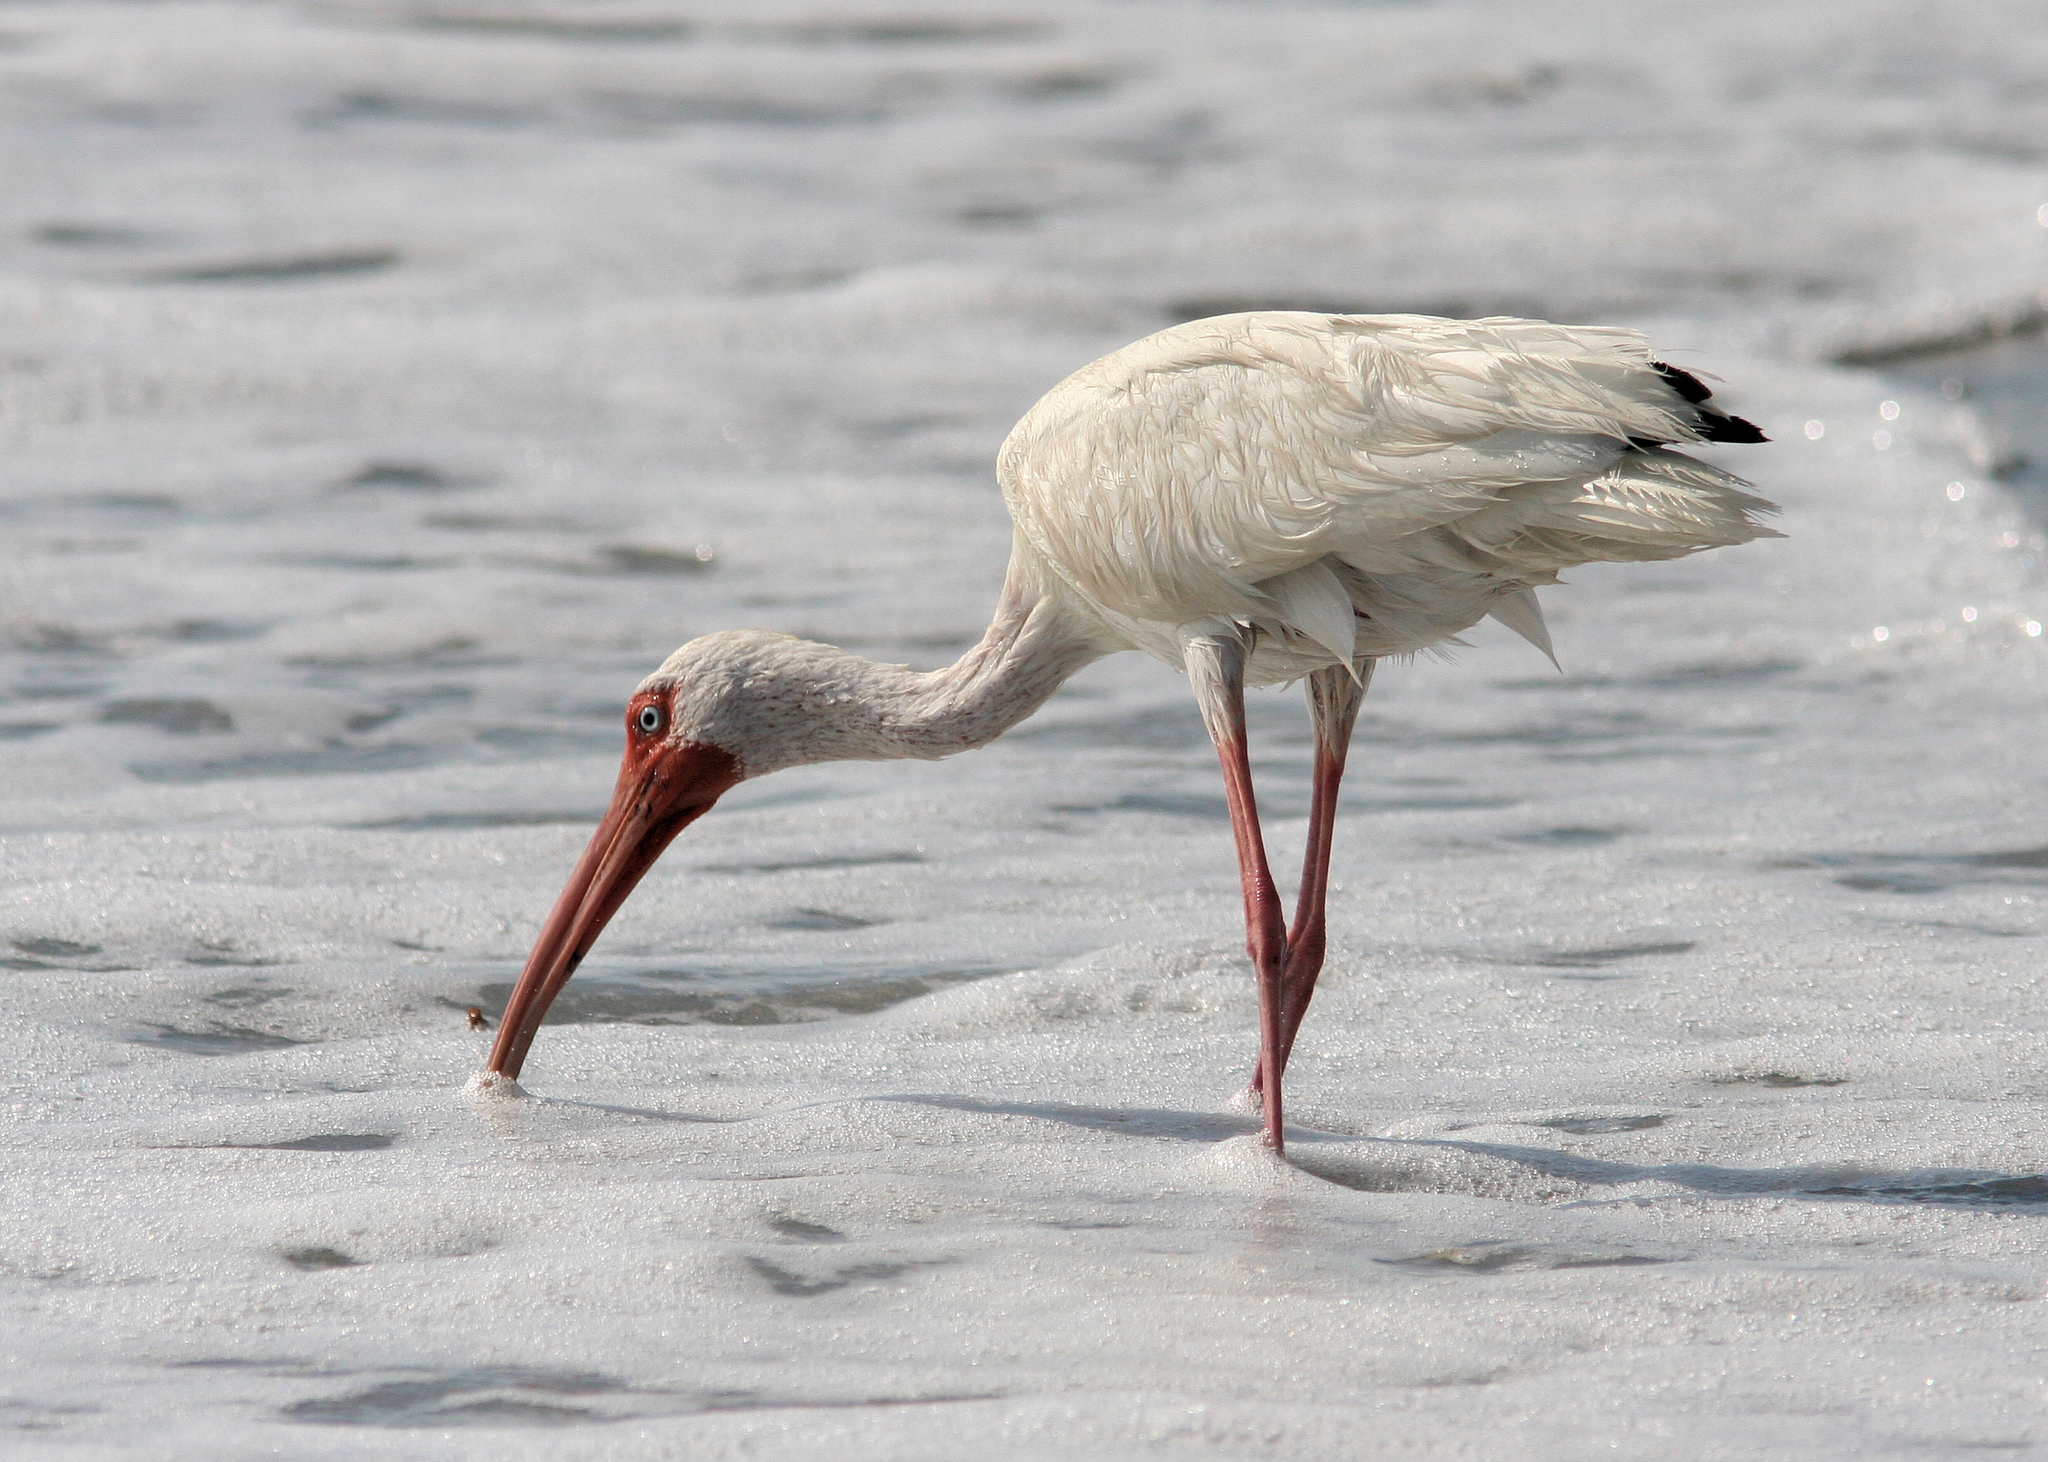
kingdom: Animalia
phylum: Chordata
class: Aves
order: Pelecaniformes
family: Threskiornithidae
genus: Eudocimus
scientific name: Eudocimus albus
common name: White ibis
